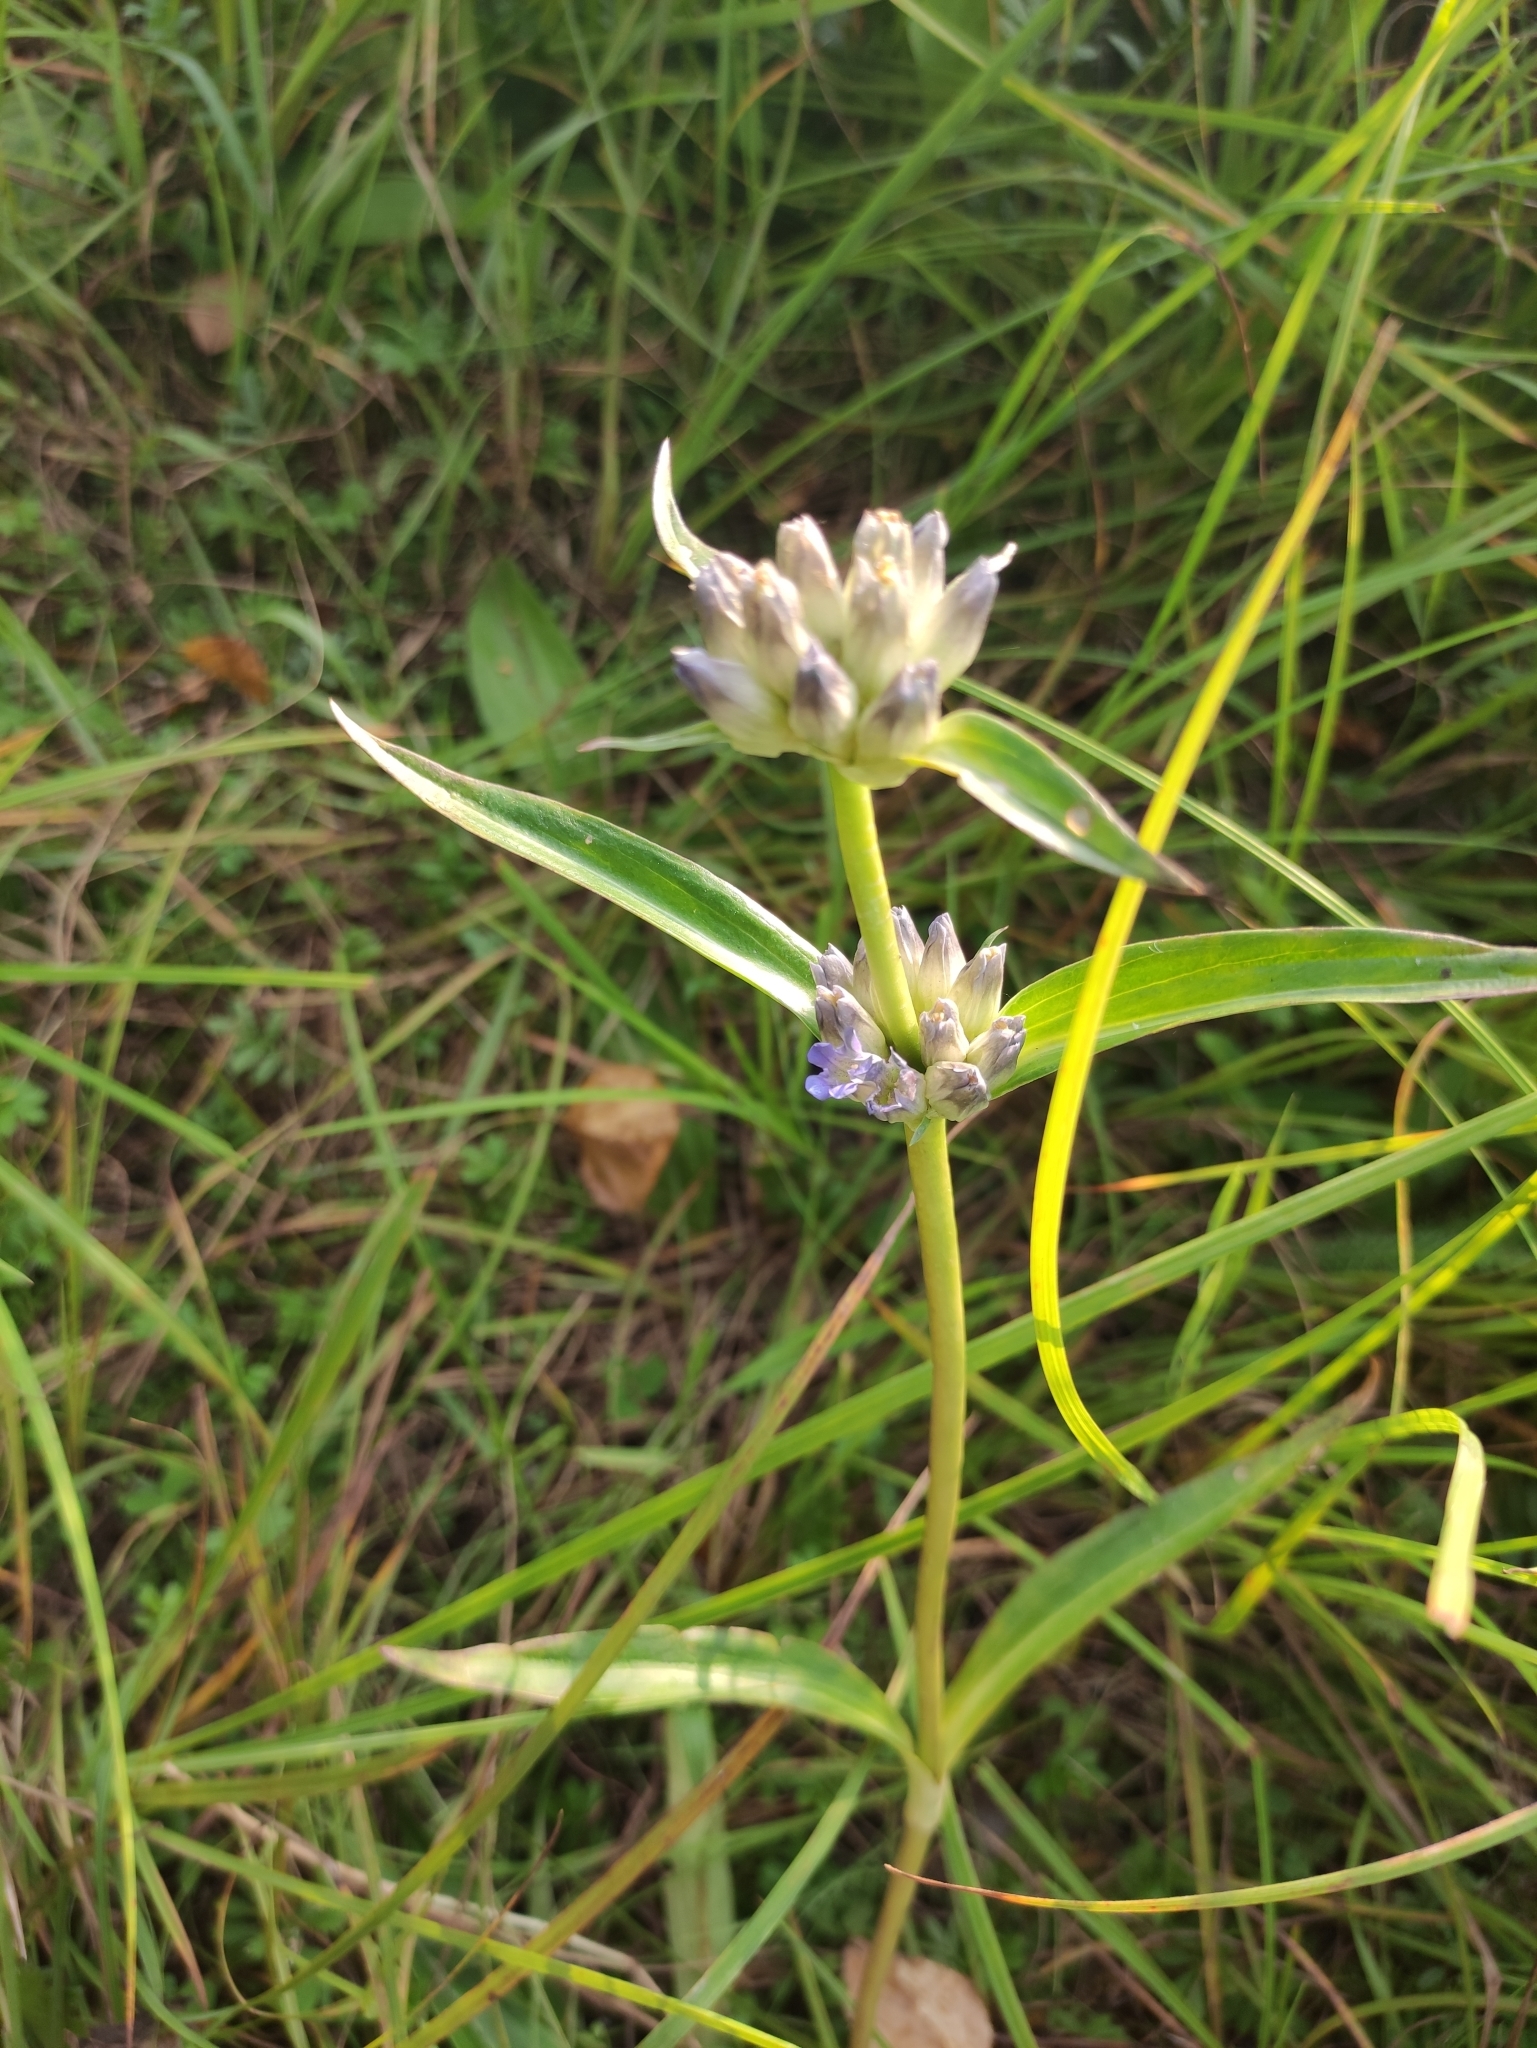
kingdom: Plantae
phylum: Tracheophyta
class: Magnoliopsida
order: Gentianales
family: Gentianaceae
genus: Gentiana
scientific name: Gentiana macrophylla
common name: Large-leaf gentian
